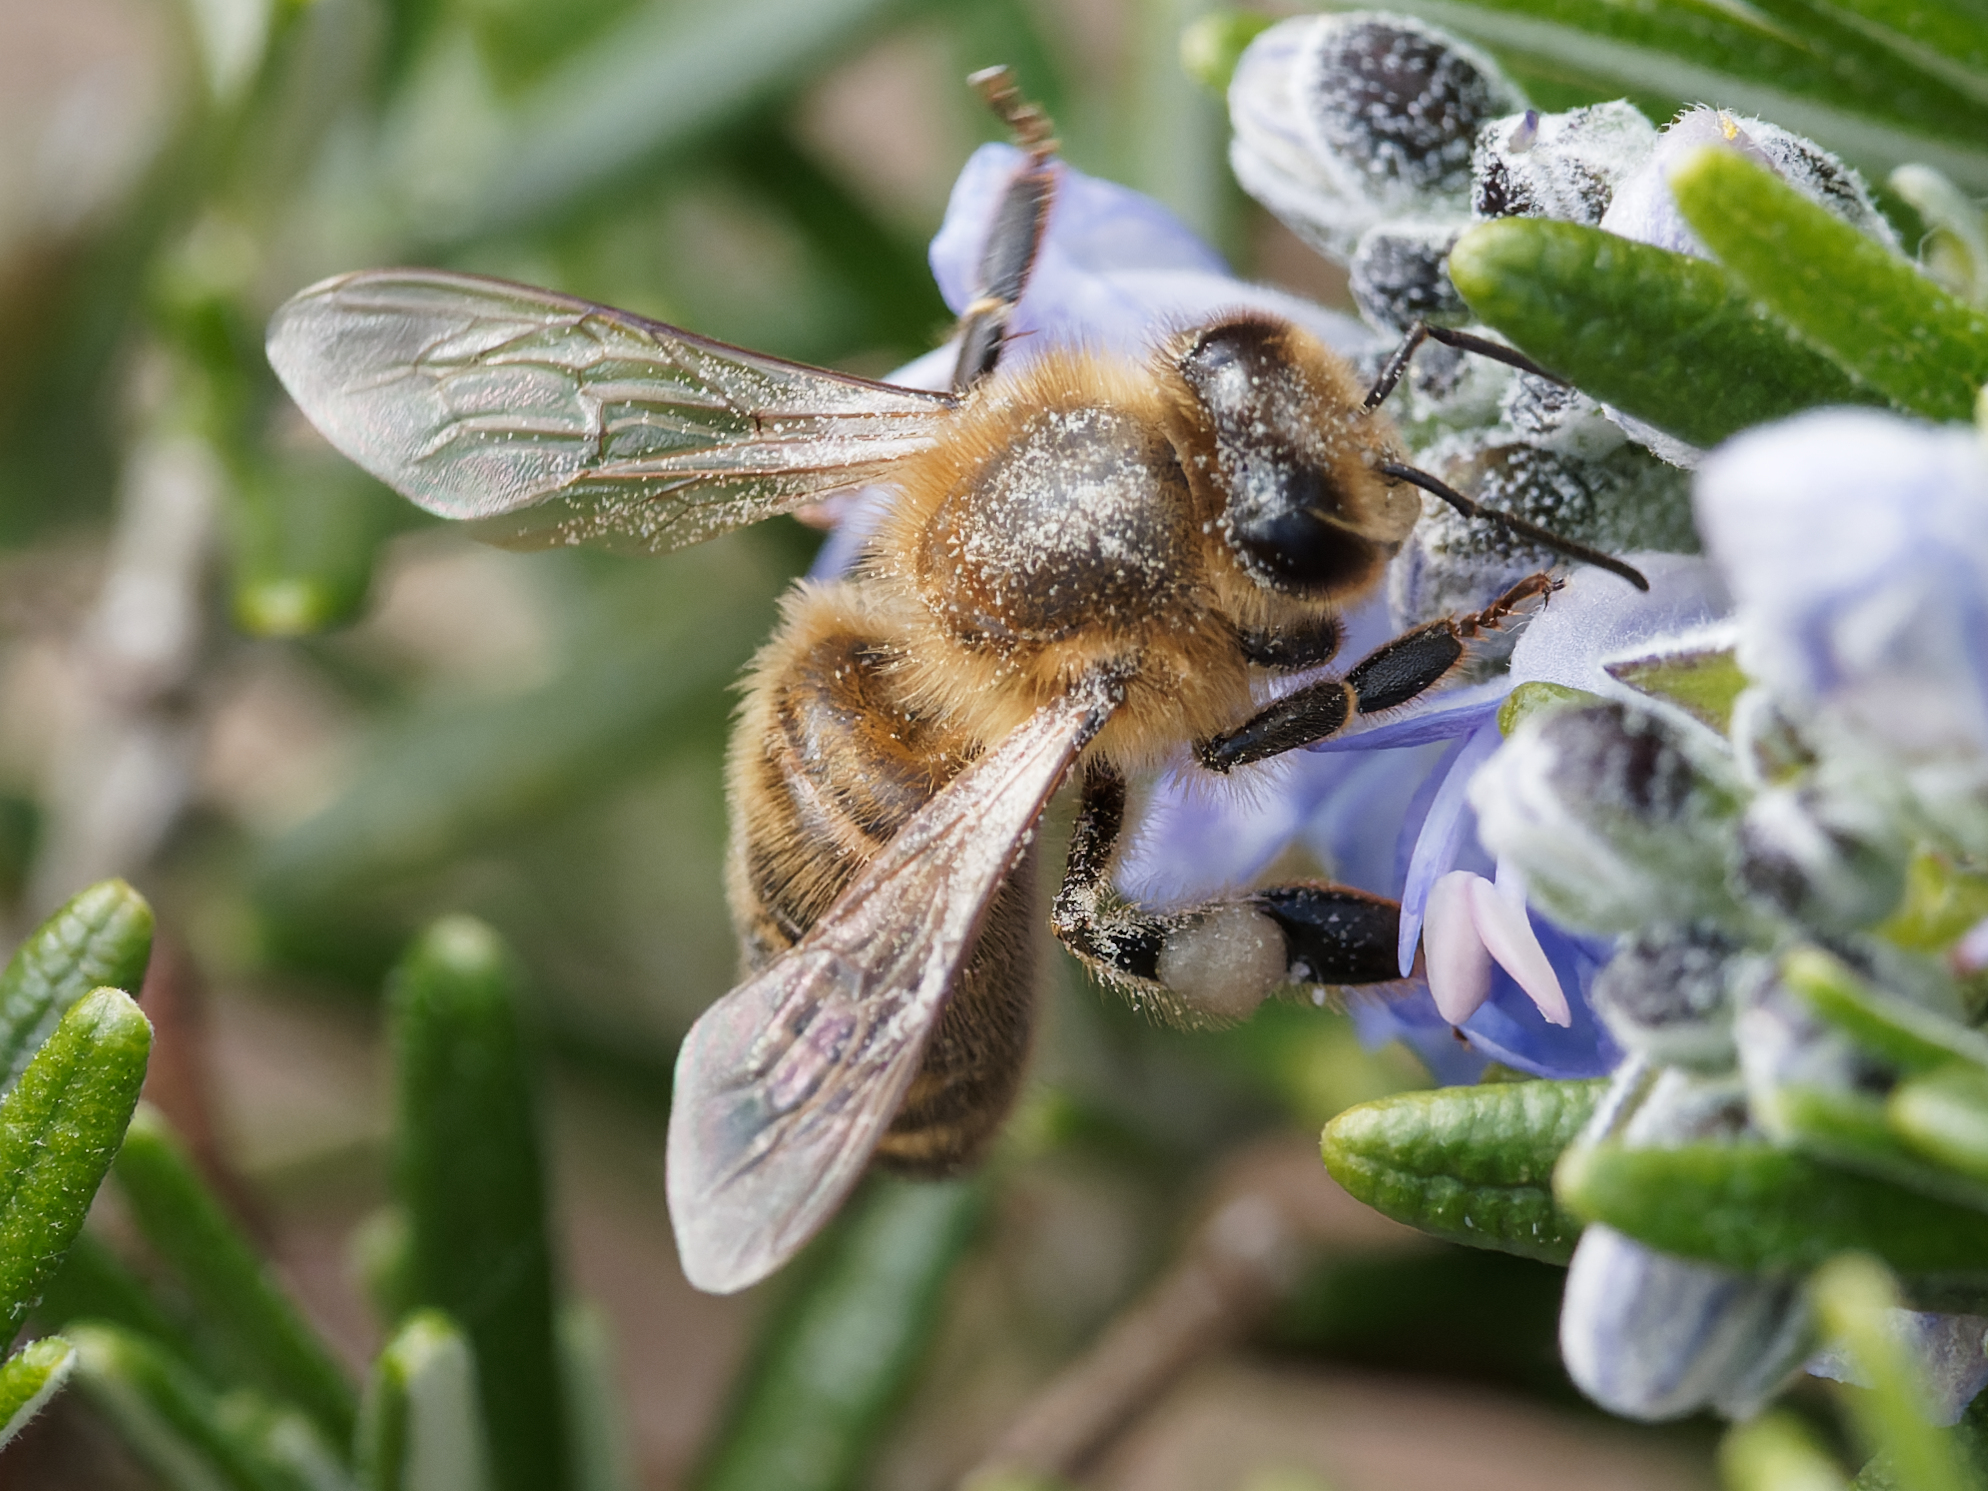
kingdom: Animalia
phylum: Arthropoda
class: Insecta
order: Hymenoptera
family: Apidae
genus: Apis
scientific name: Apis mellifera
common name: Honey bee
